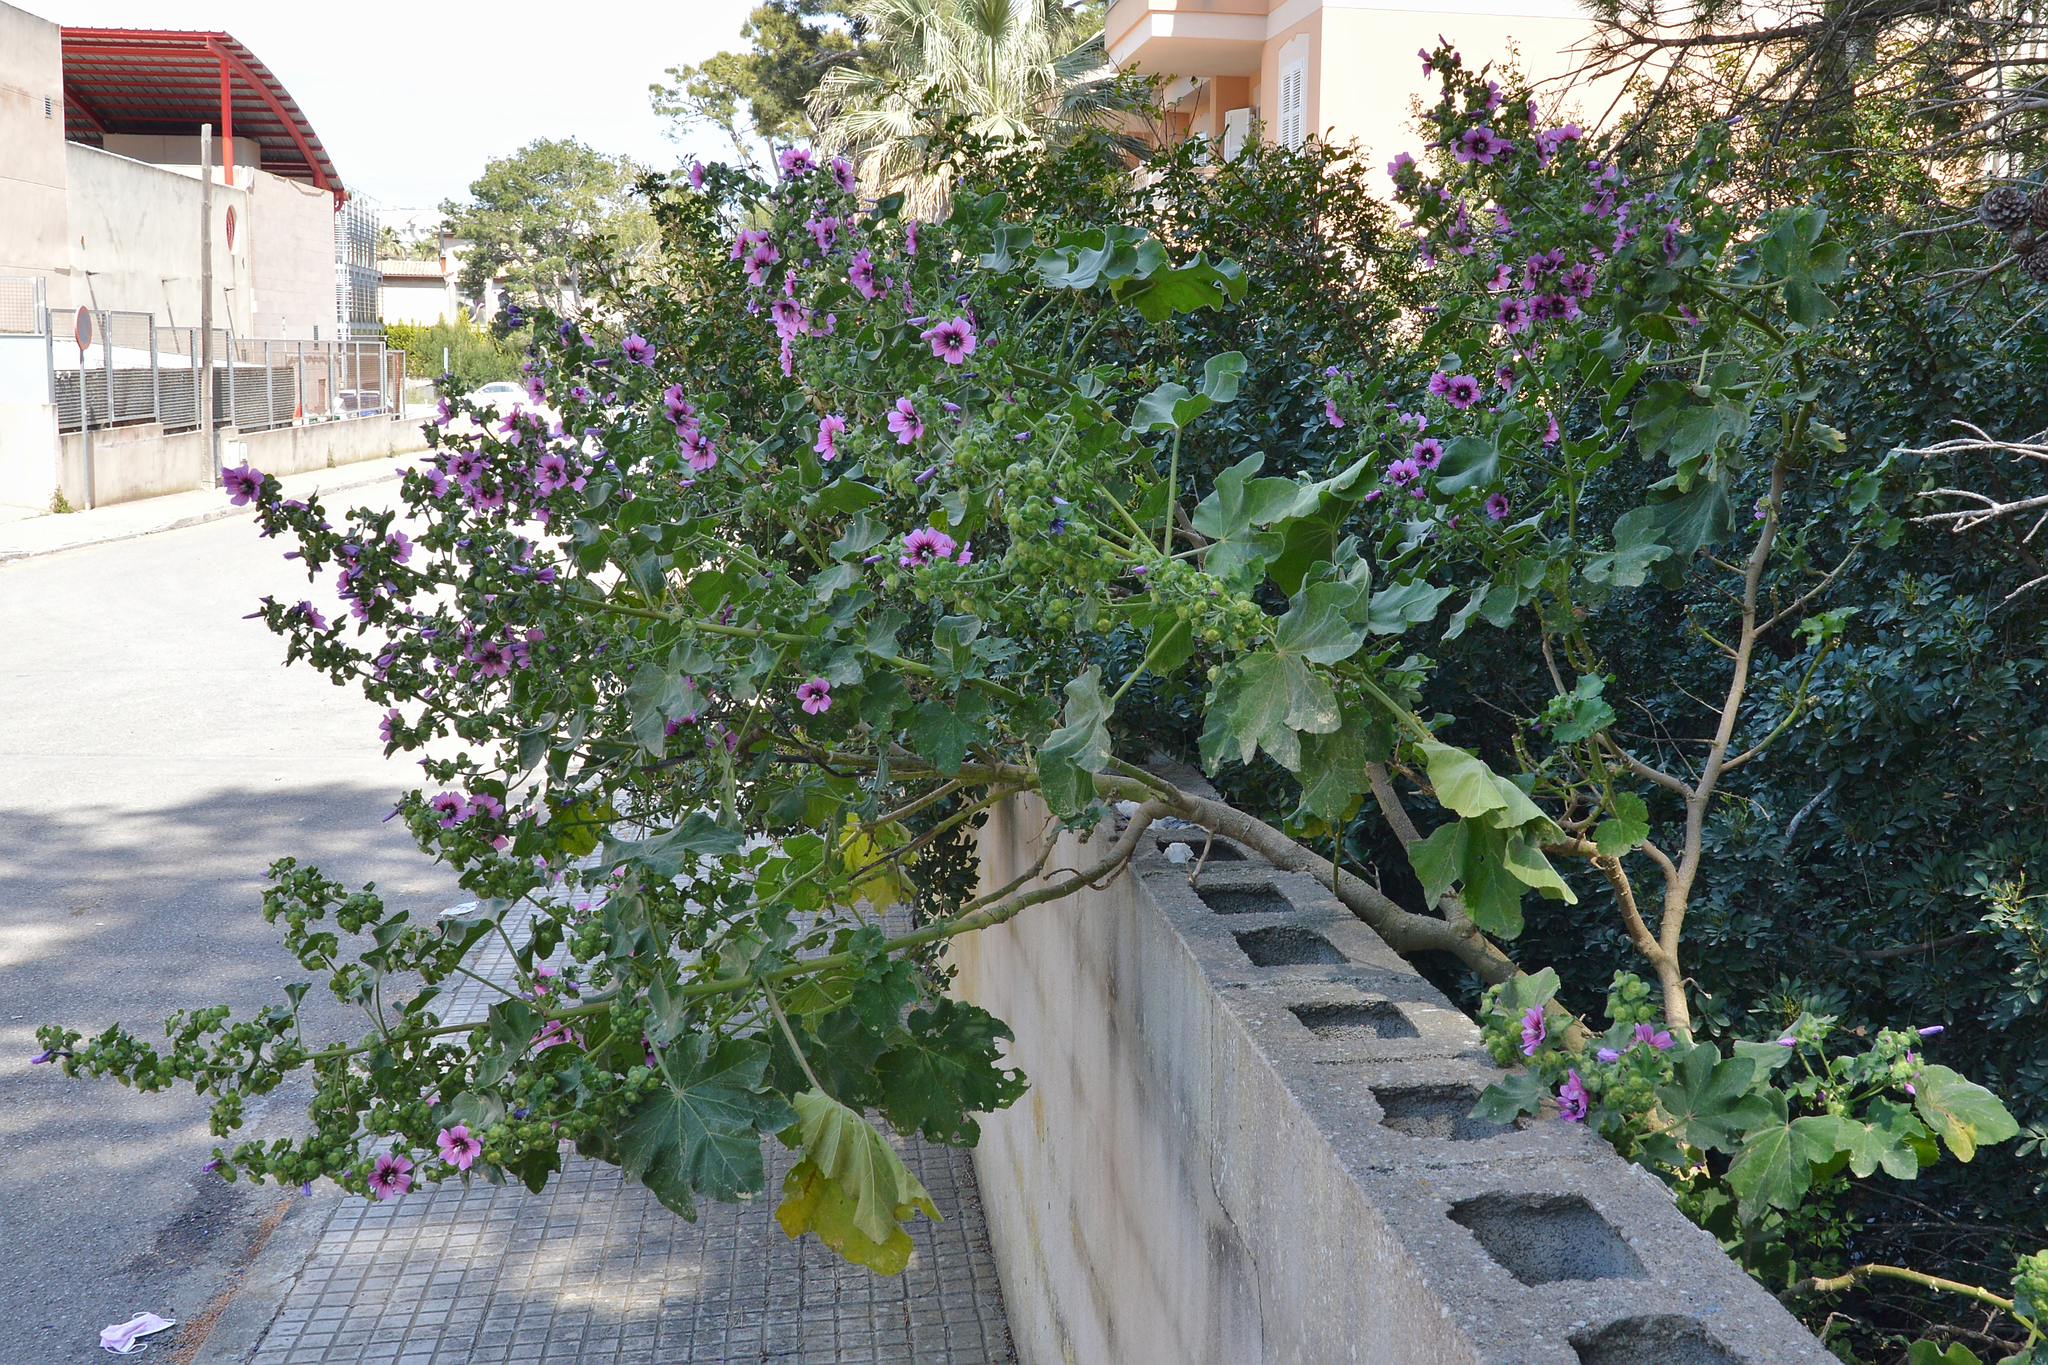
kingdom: Plantae
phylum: Tracheophyta
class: Magnoliopsida
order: Malvales
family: Malvaceae
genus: Malva
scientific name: Malva arborea
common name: Tree mallow
